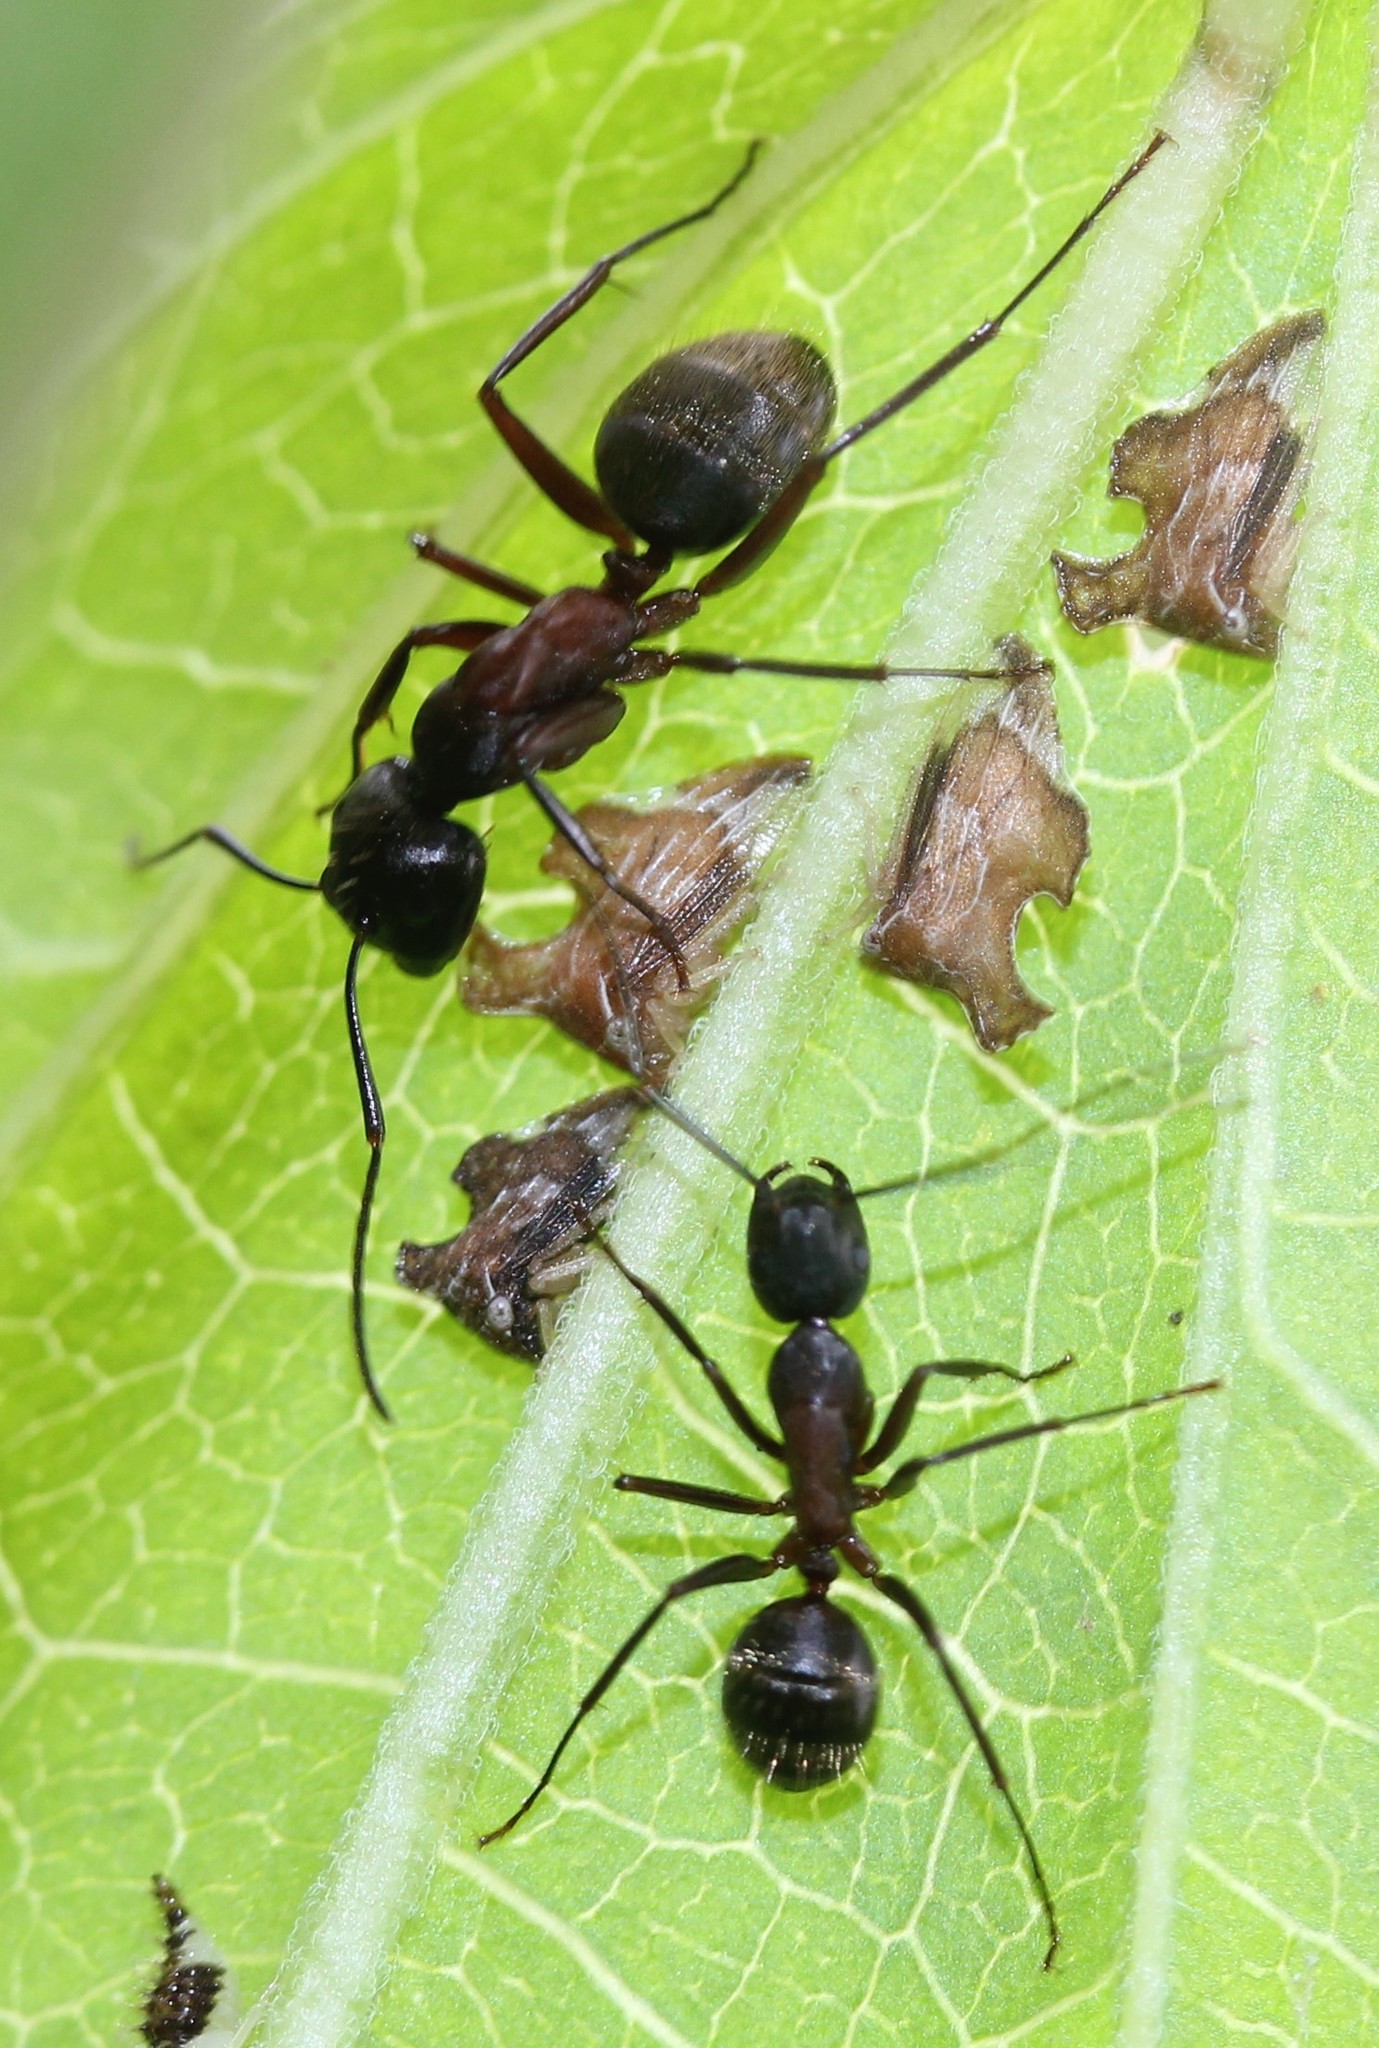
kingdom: Animalia
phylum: Arthropoda
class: Insecta
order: Hymenoptera
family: Formicidae
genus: Camponotus
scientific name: Camponotus chromaiodes
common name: Red carpenter ant
